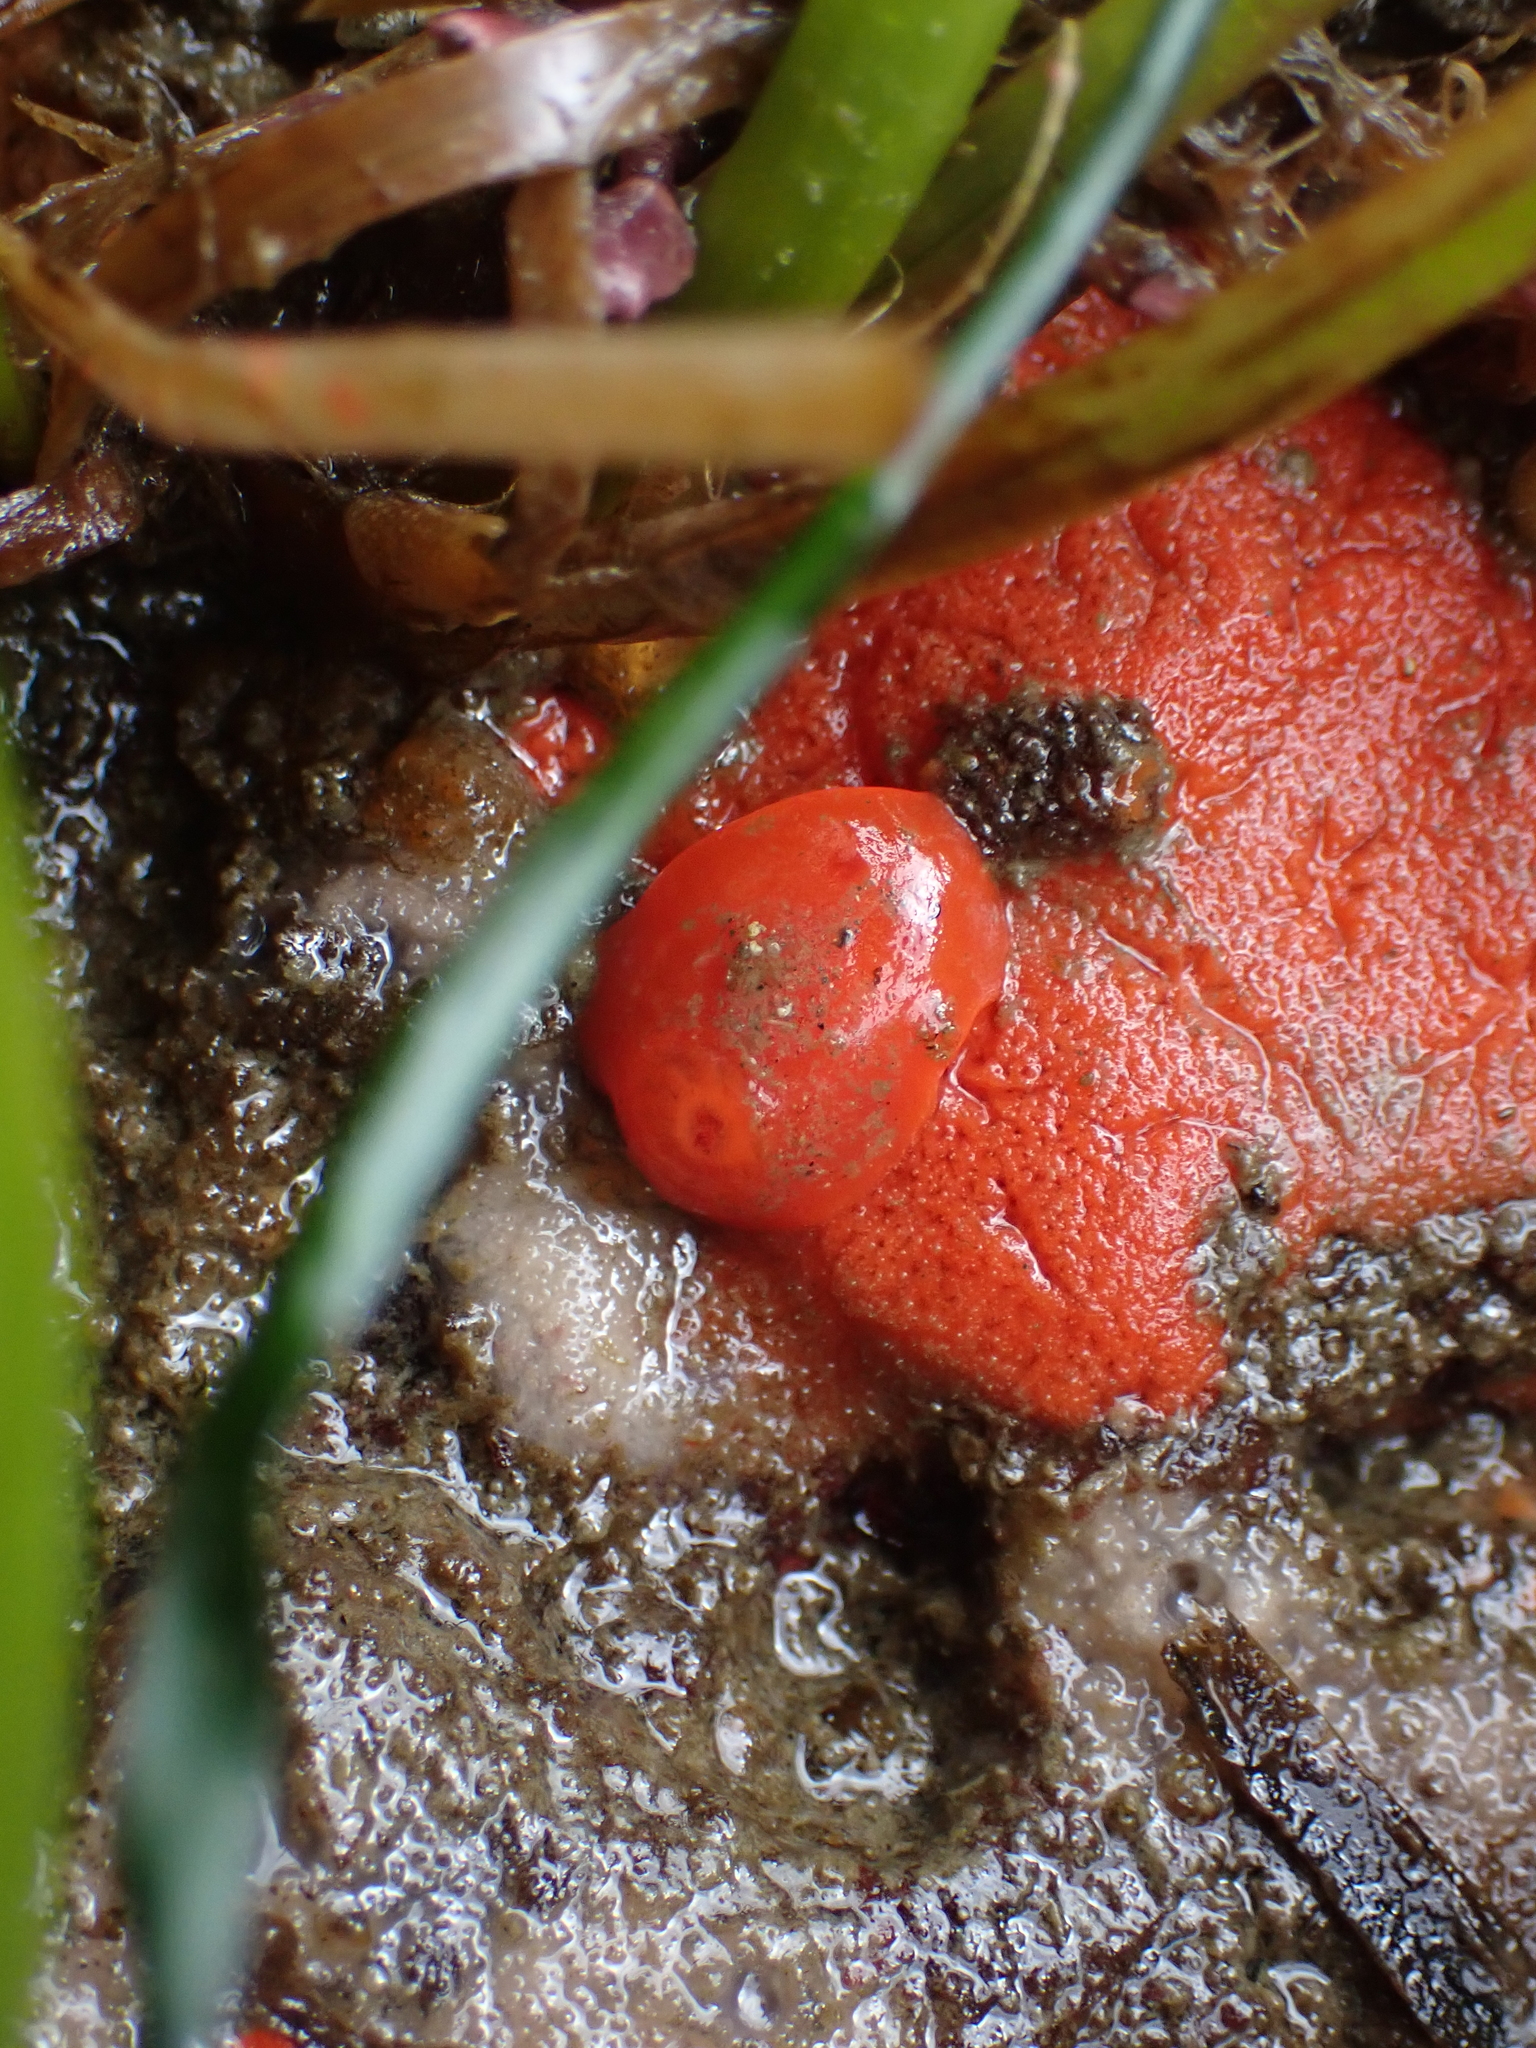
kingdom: Animalia
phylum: Mollusca
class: Gastropoda
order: Nudibranchia
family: Discodorididae
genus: Rostanga
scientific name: Rostanga pulchra
